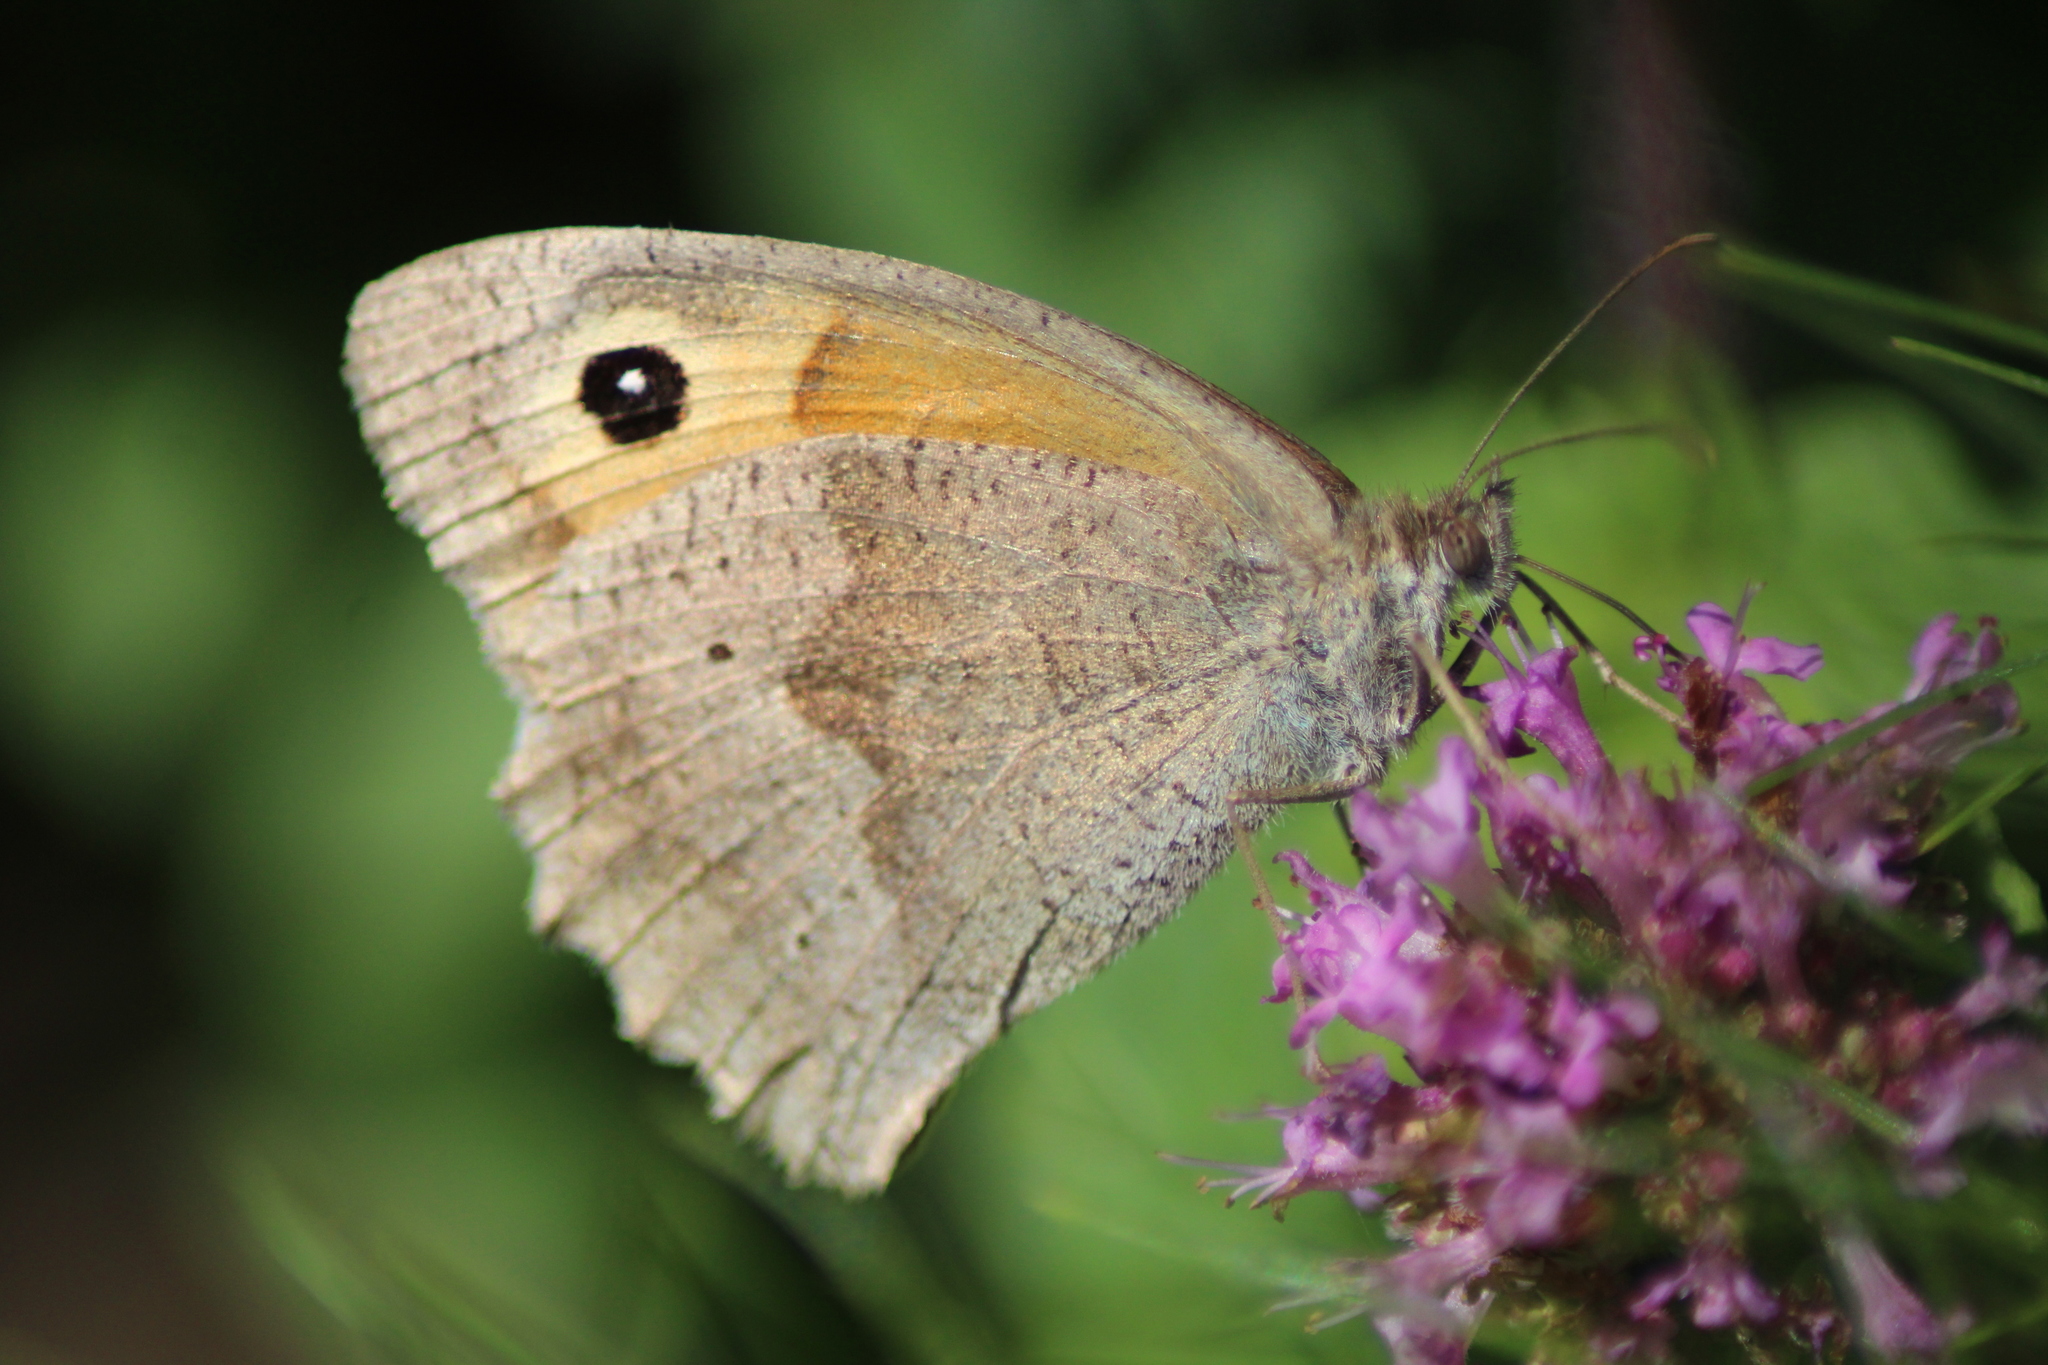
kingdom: Animalia
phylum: Arthropoda
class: Insecta
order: Lepidoptera
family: Nymphalidae
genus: Maniola
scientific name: Maniola jurtina
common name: Meadow brown
